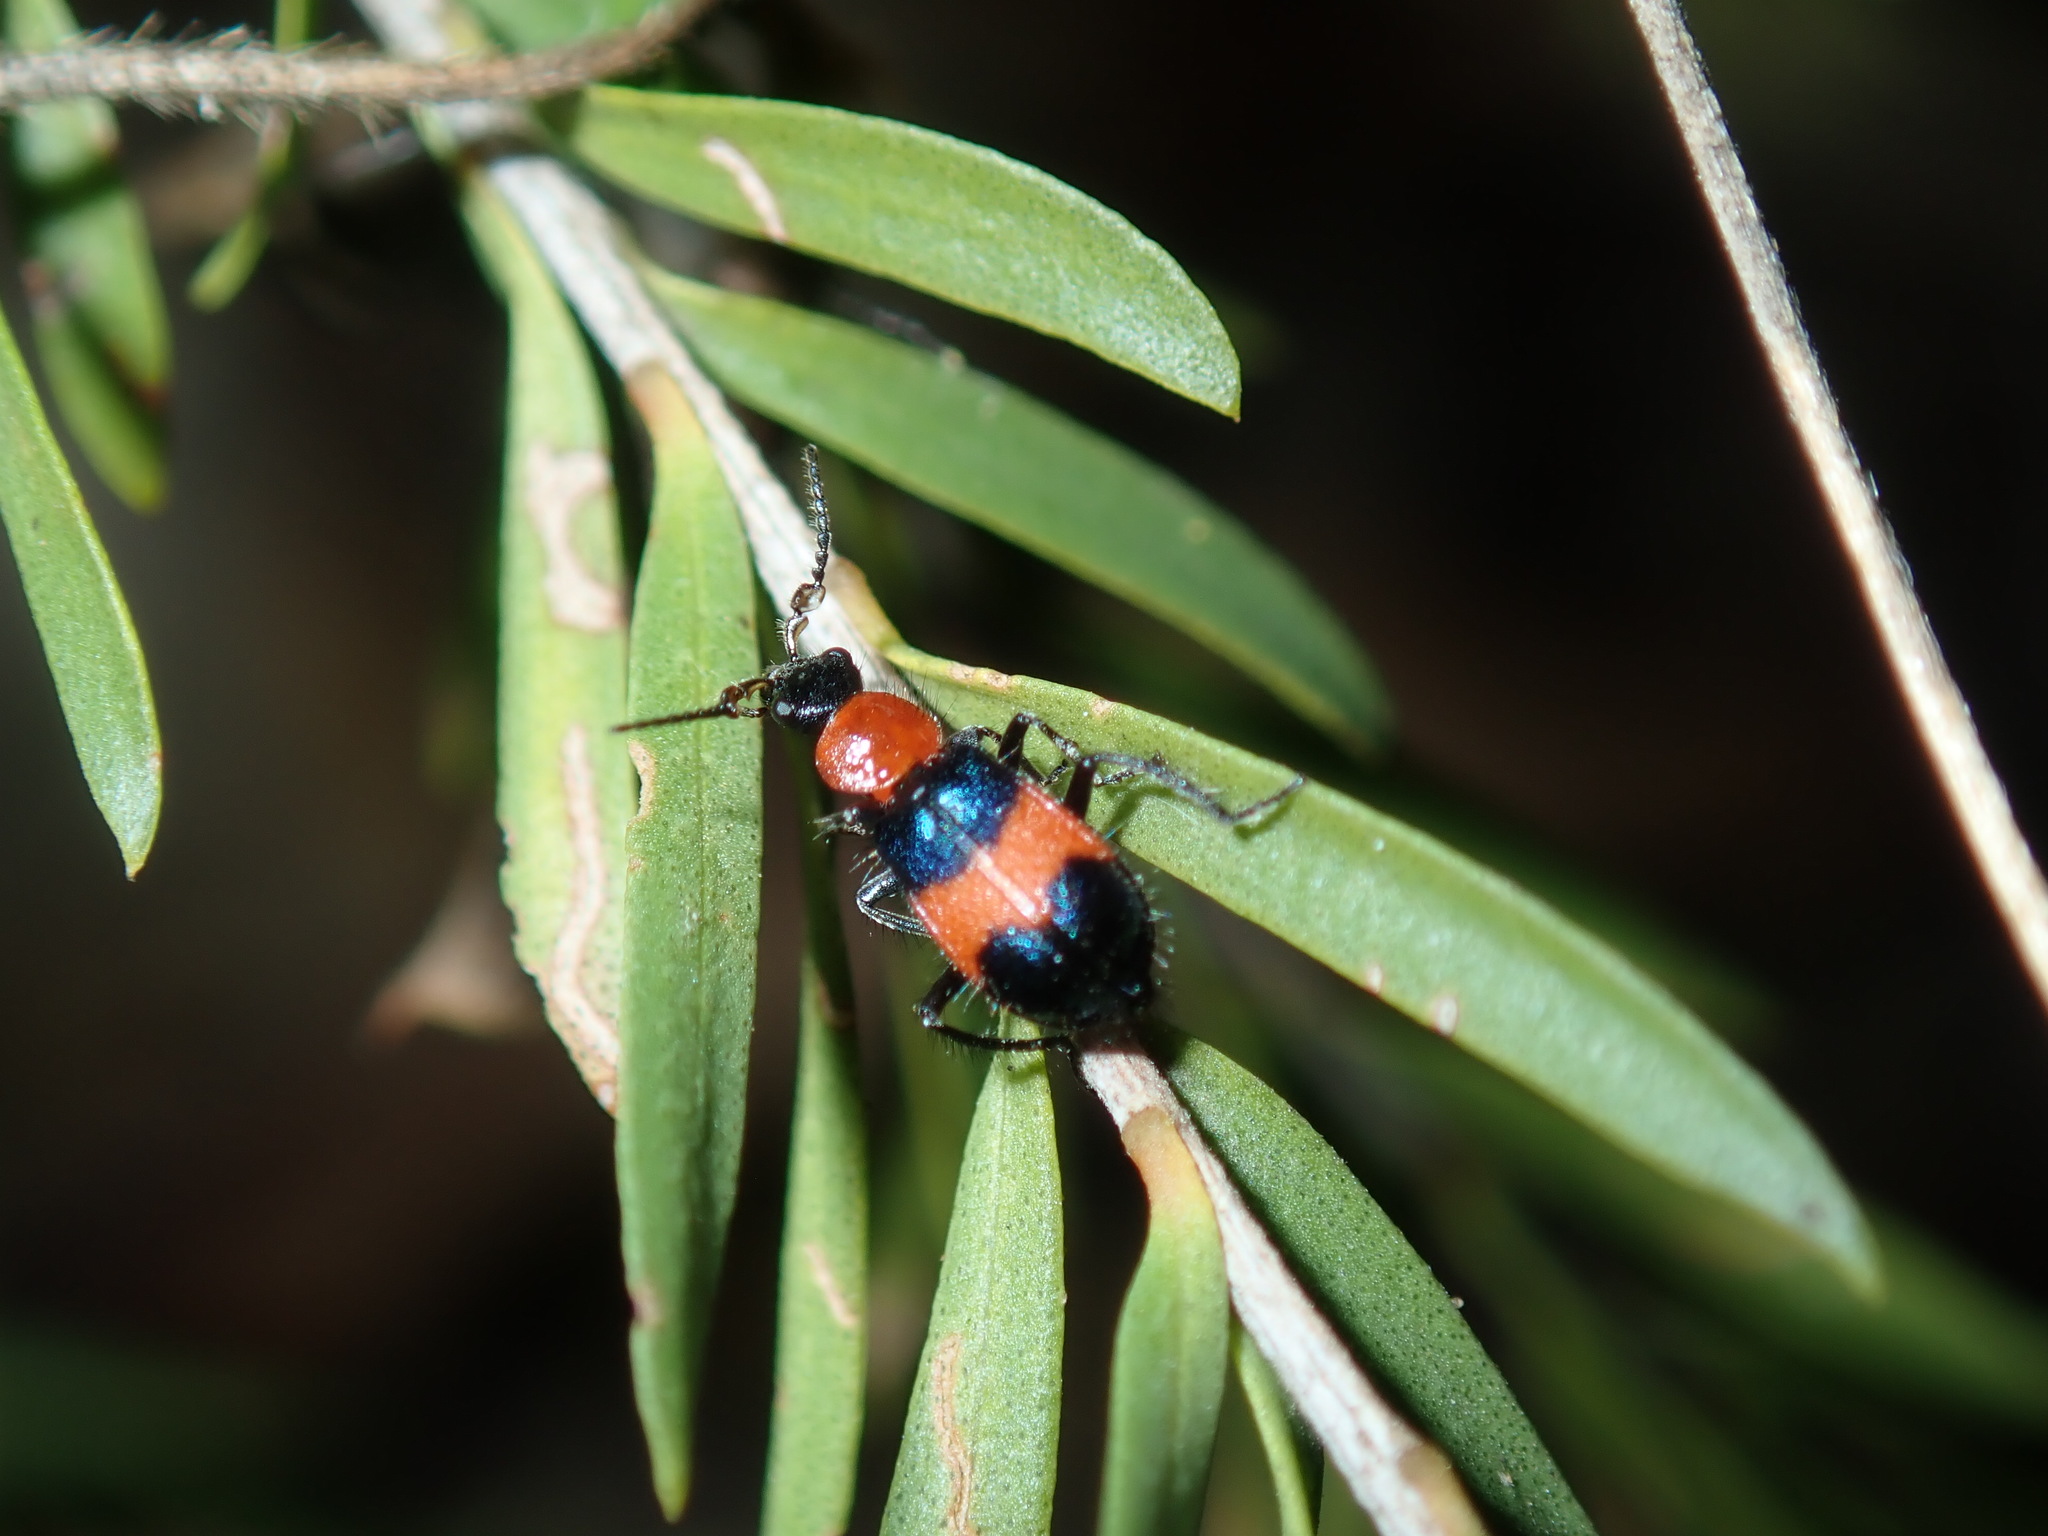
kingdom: Animalia
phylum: Arthropoda
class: Insecta
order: Coleoptera
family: Melyridae
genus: Dicranolaius
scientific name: Dicranolaius
